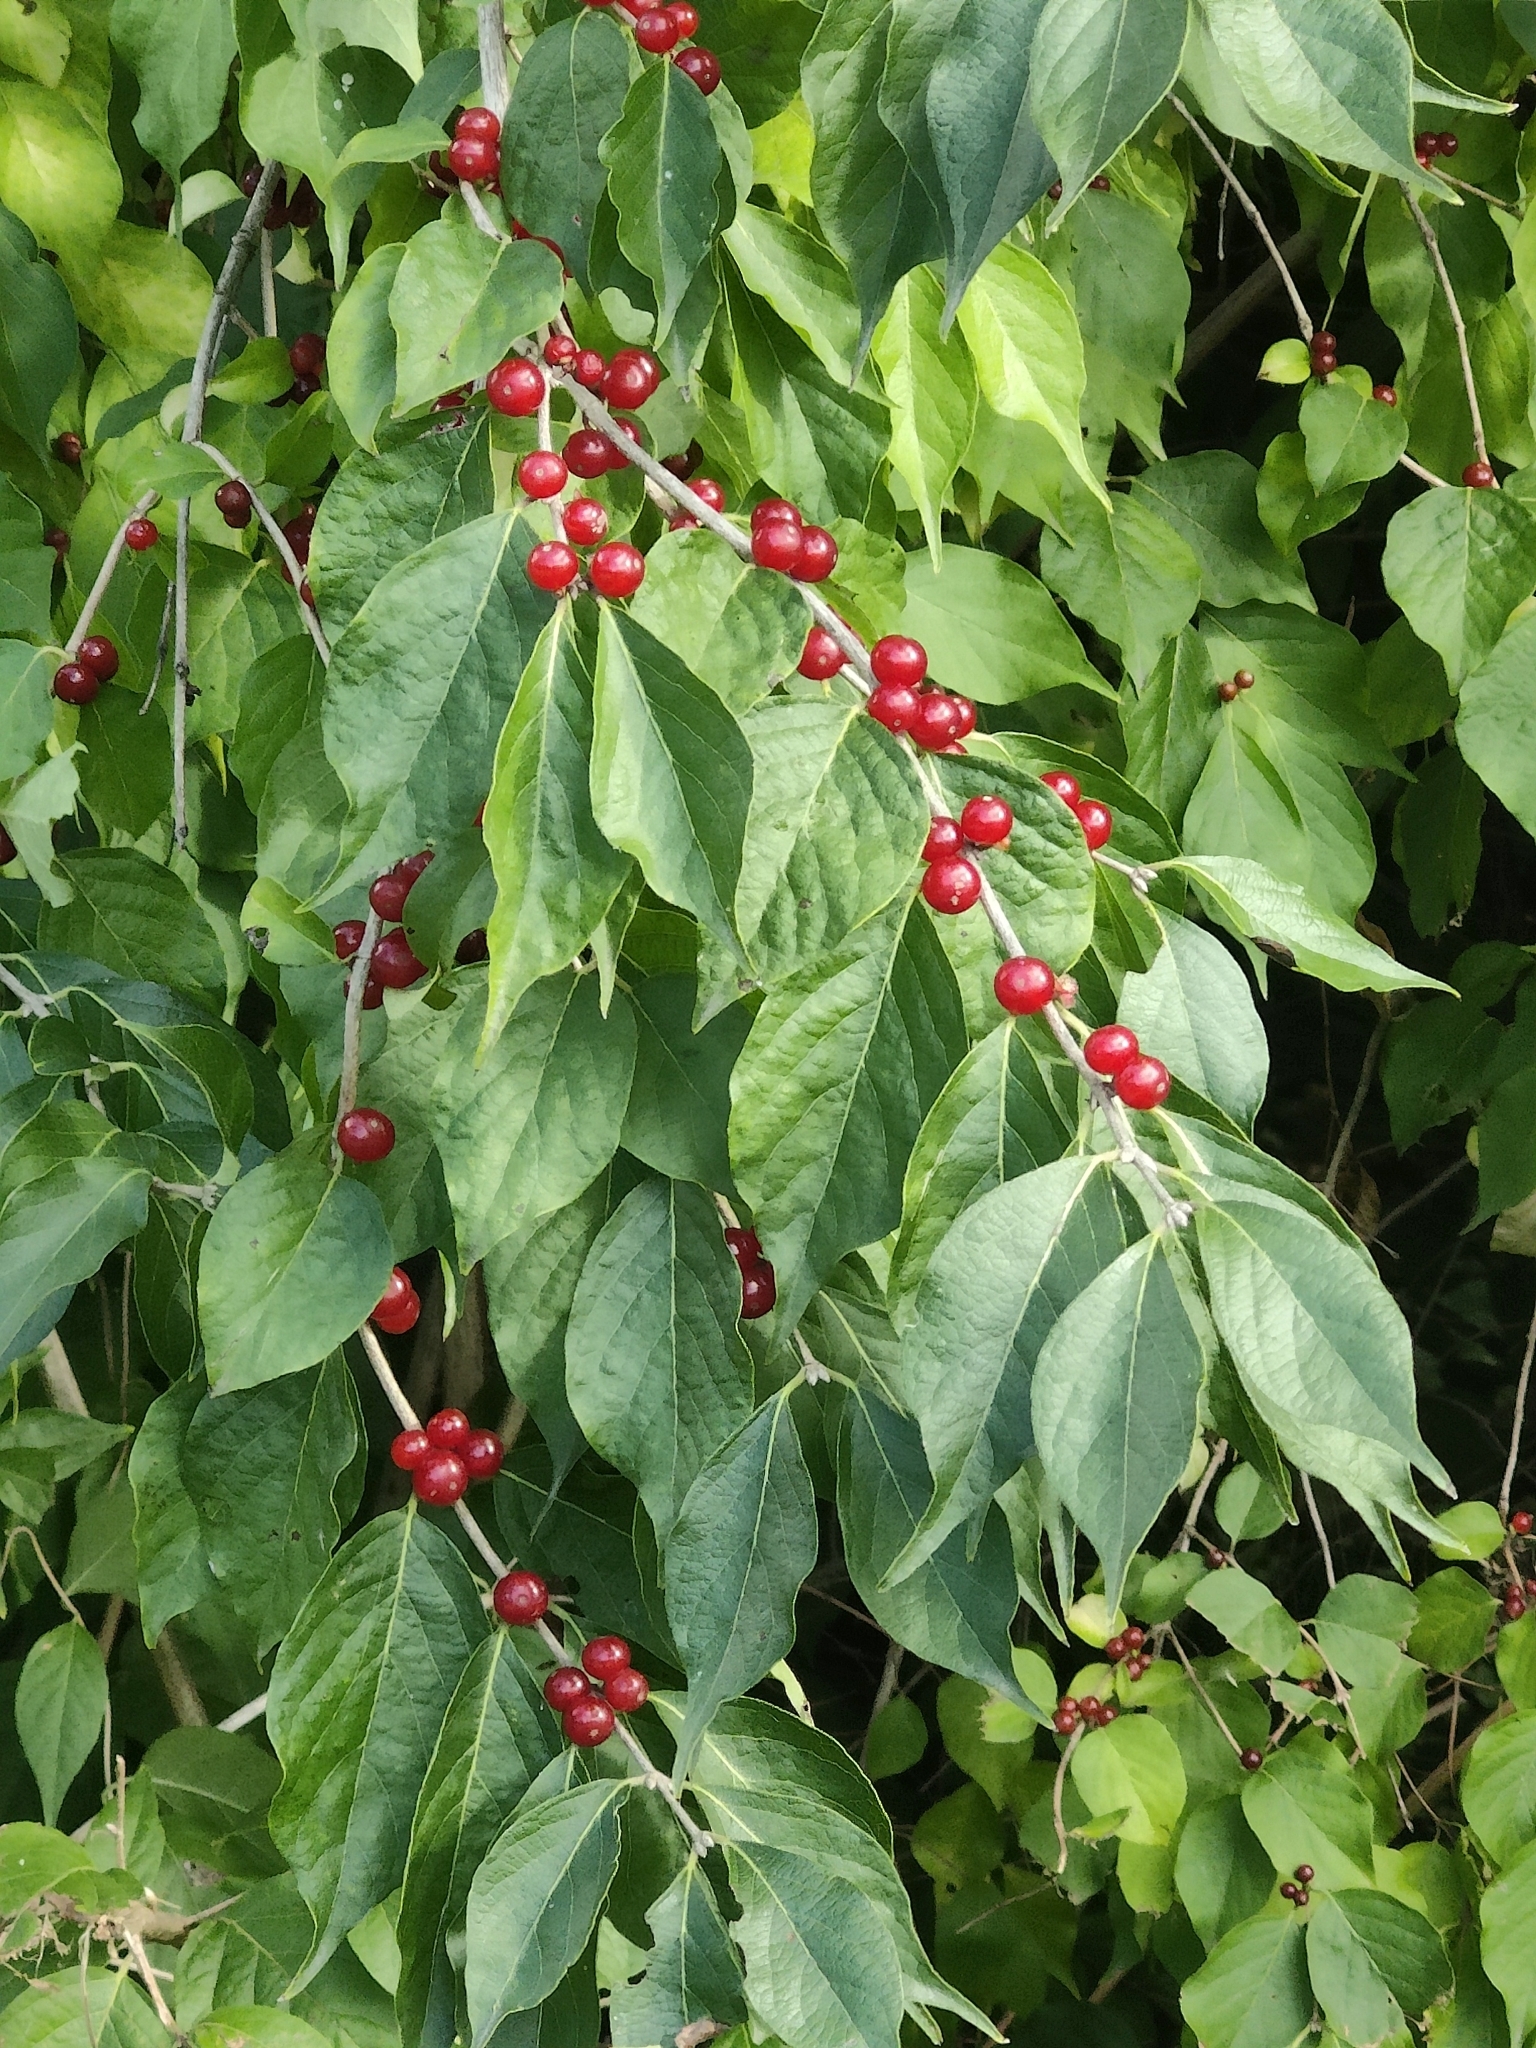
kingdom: Plantae
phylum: Tracheophyta
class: Magnoliopsida
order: Dipsacales
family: Caprifoliaceae
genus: Lonicera
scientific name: Lonicera maackii
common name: Amur honeysuckle
